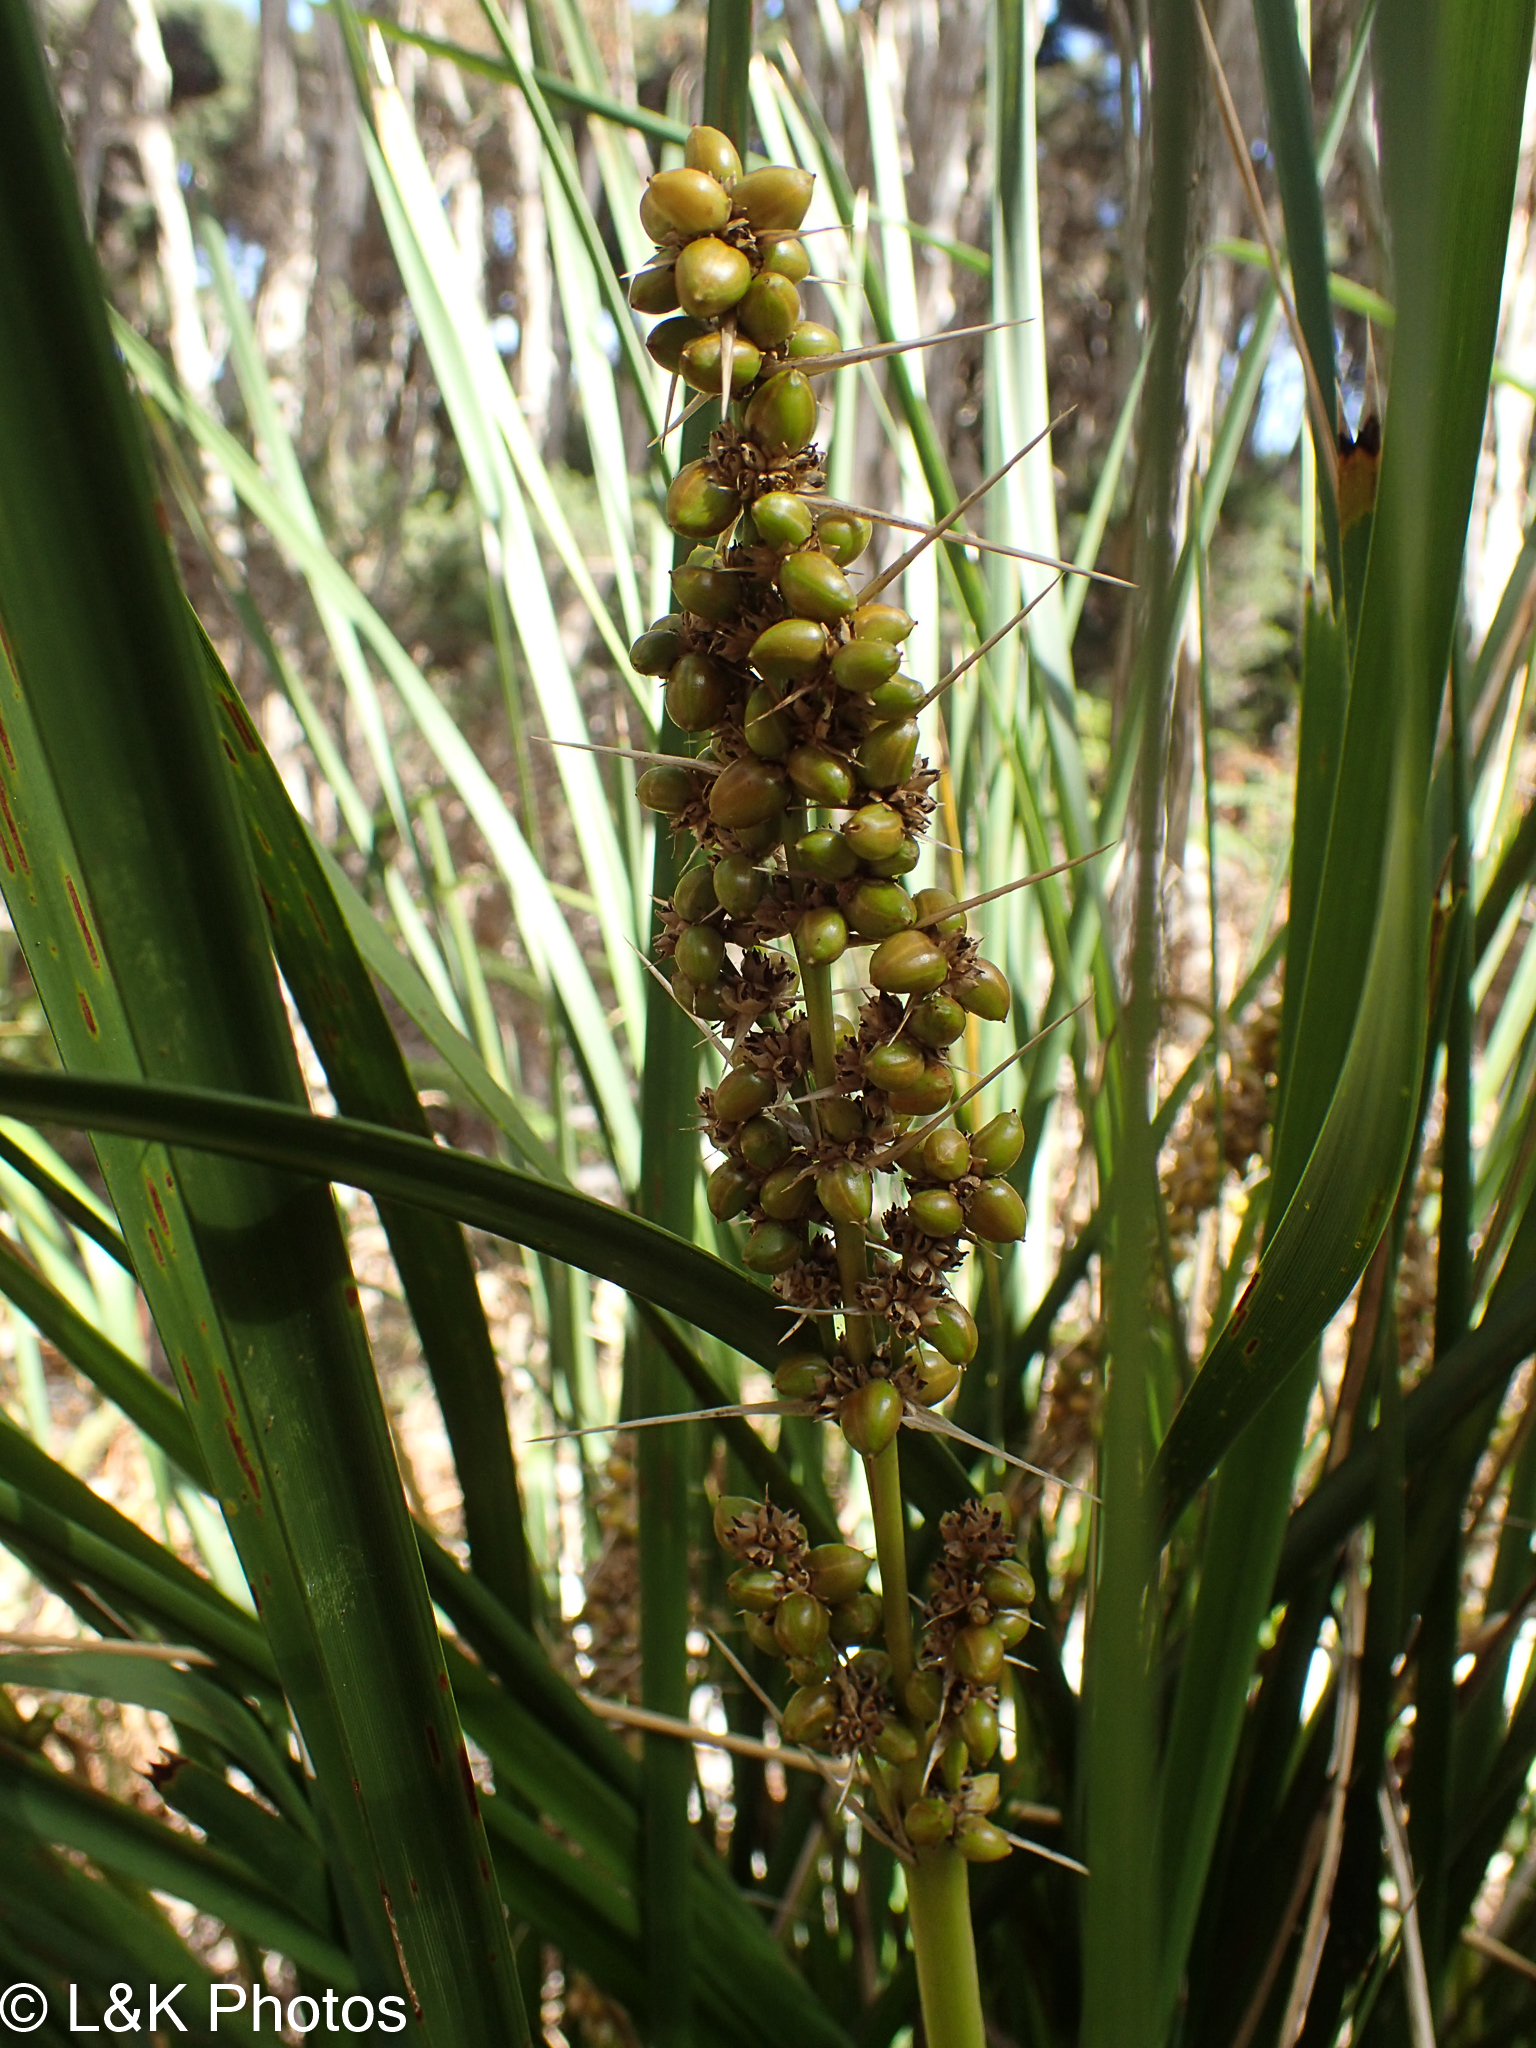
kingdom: Plantae
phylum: Tracheophyta
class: Liliopsida
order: Asparagales
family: Asparagaceae
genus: Lomandra
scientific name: Lomandra longifolia
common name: Longleaf mat-rush
